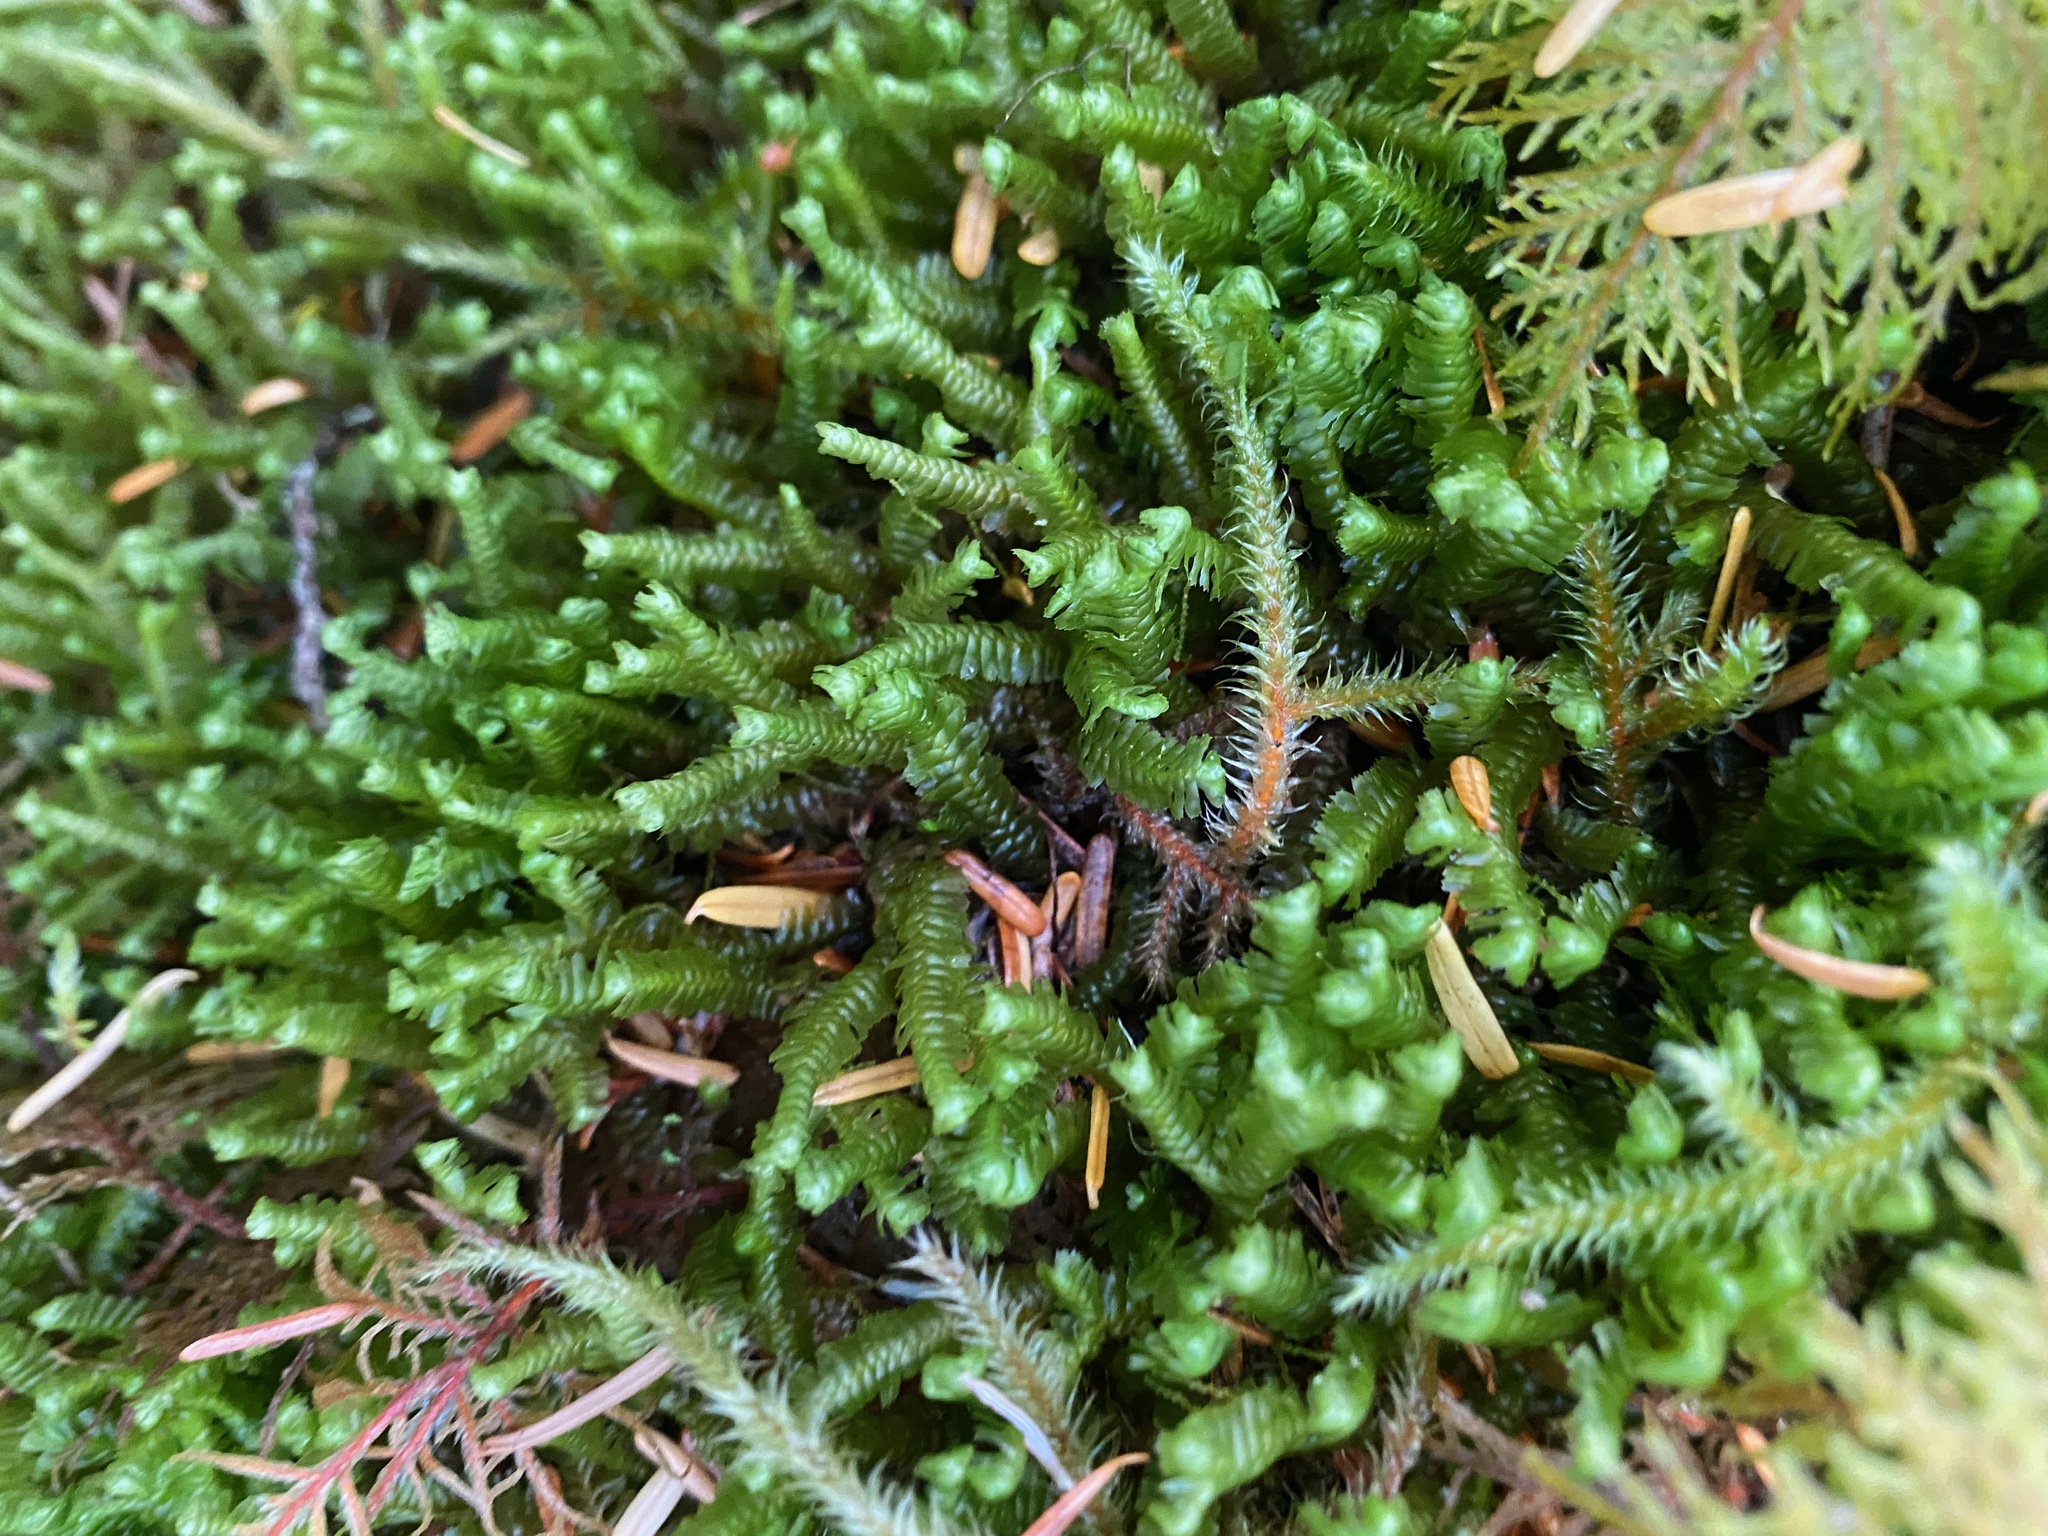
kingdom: Plantae
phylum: Marchantiophyta
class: Jungermanniopsida
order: Jungermanniales
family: Lepidoziaceae
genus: Bazzania
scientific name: Bazzania trilobata
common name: Three-lobed whipwort
